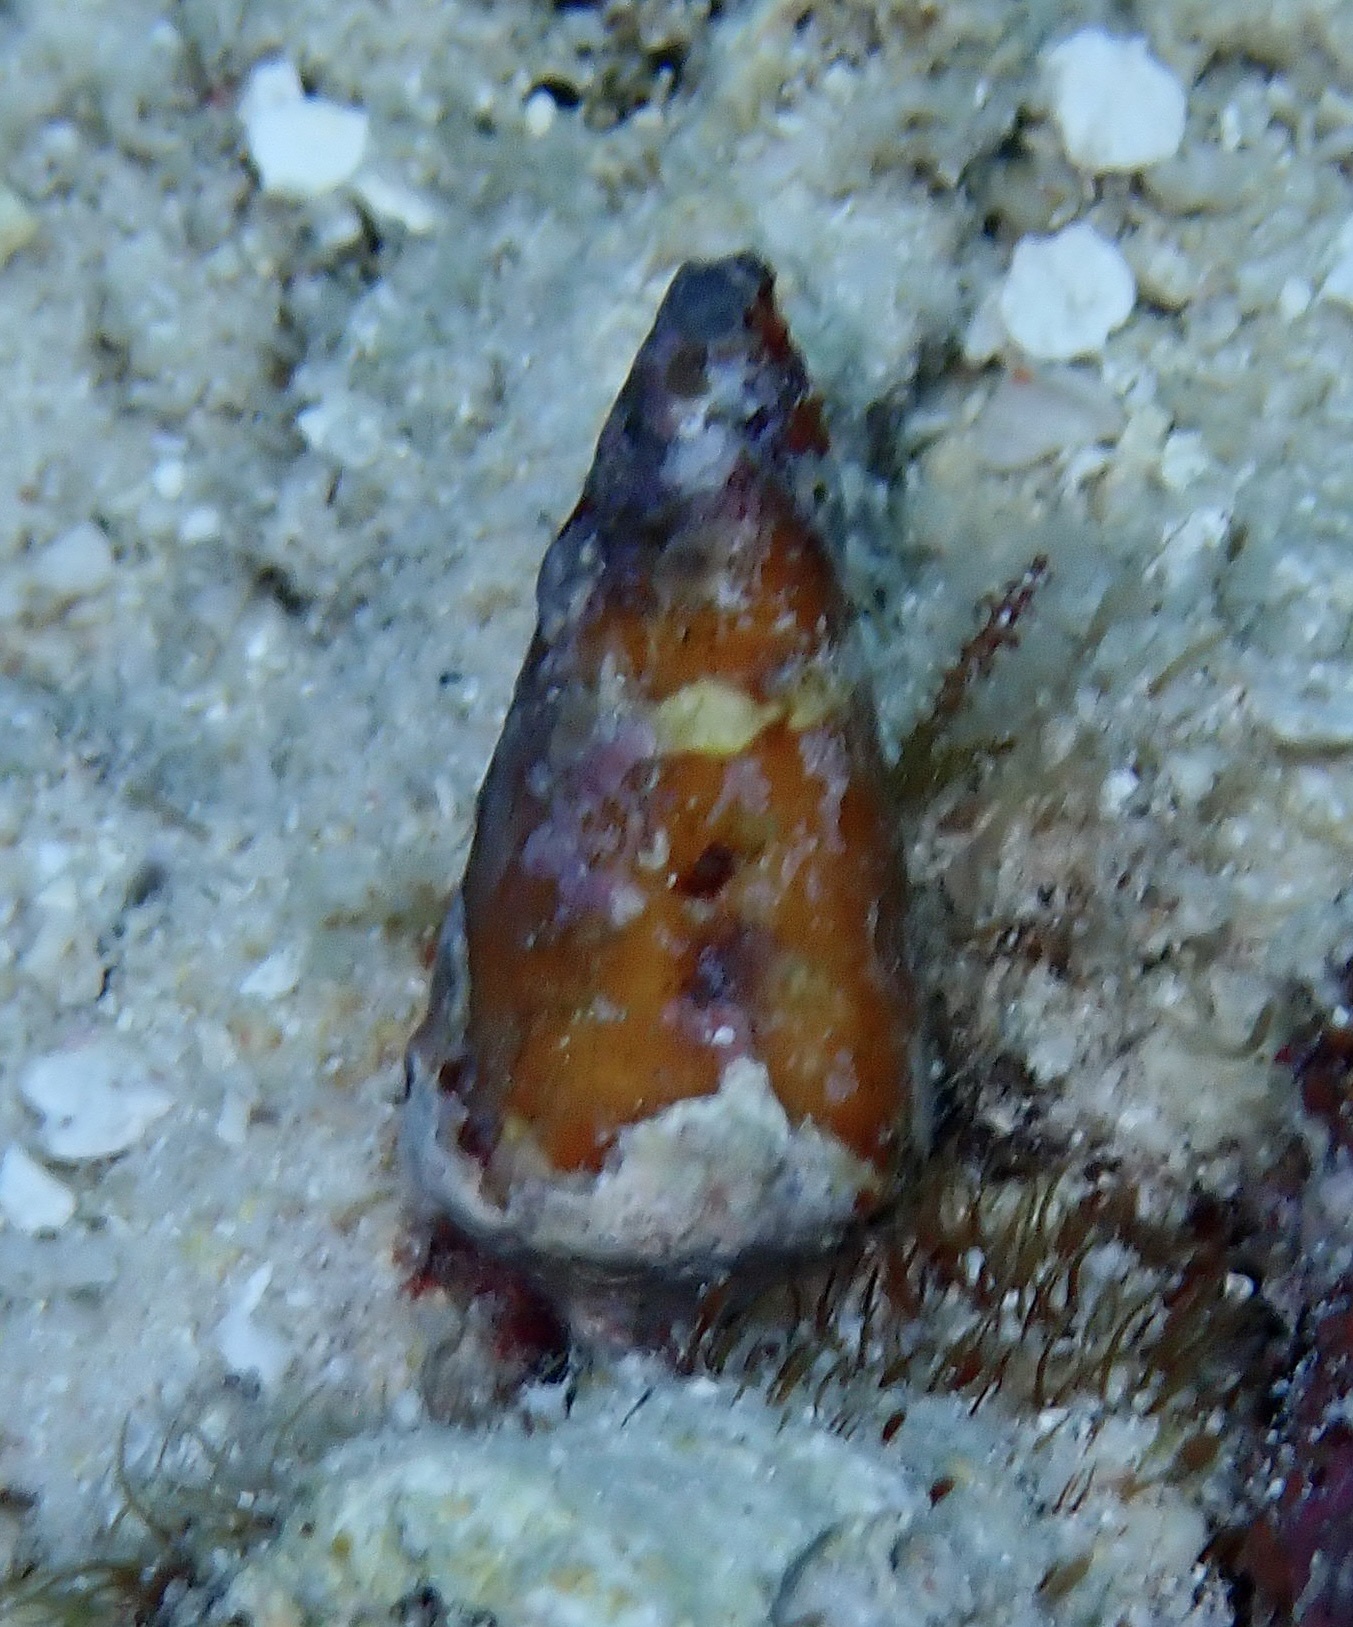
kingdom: Animalia
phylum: Mollusca
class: Gastropoda
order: Neogastropoda
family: Conidae
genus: Conus
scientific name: Conus litoglyphus
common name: Lithograph cone
